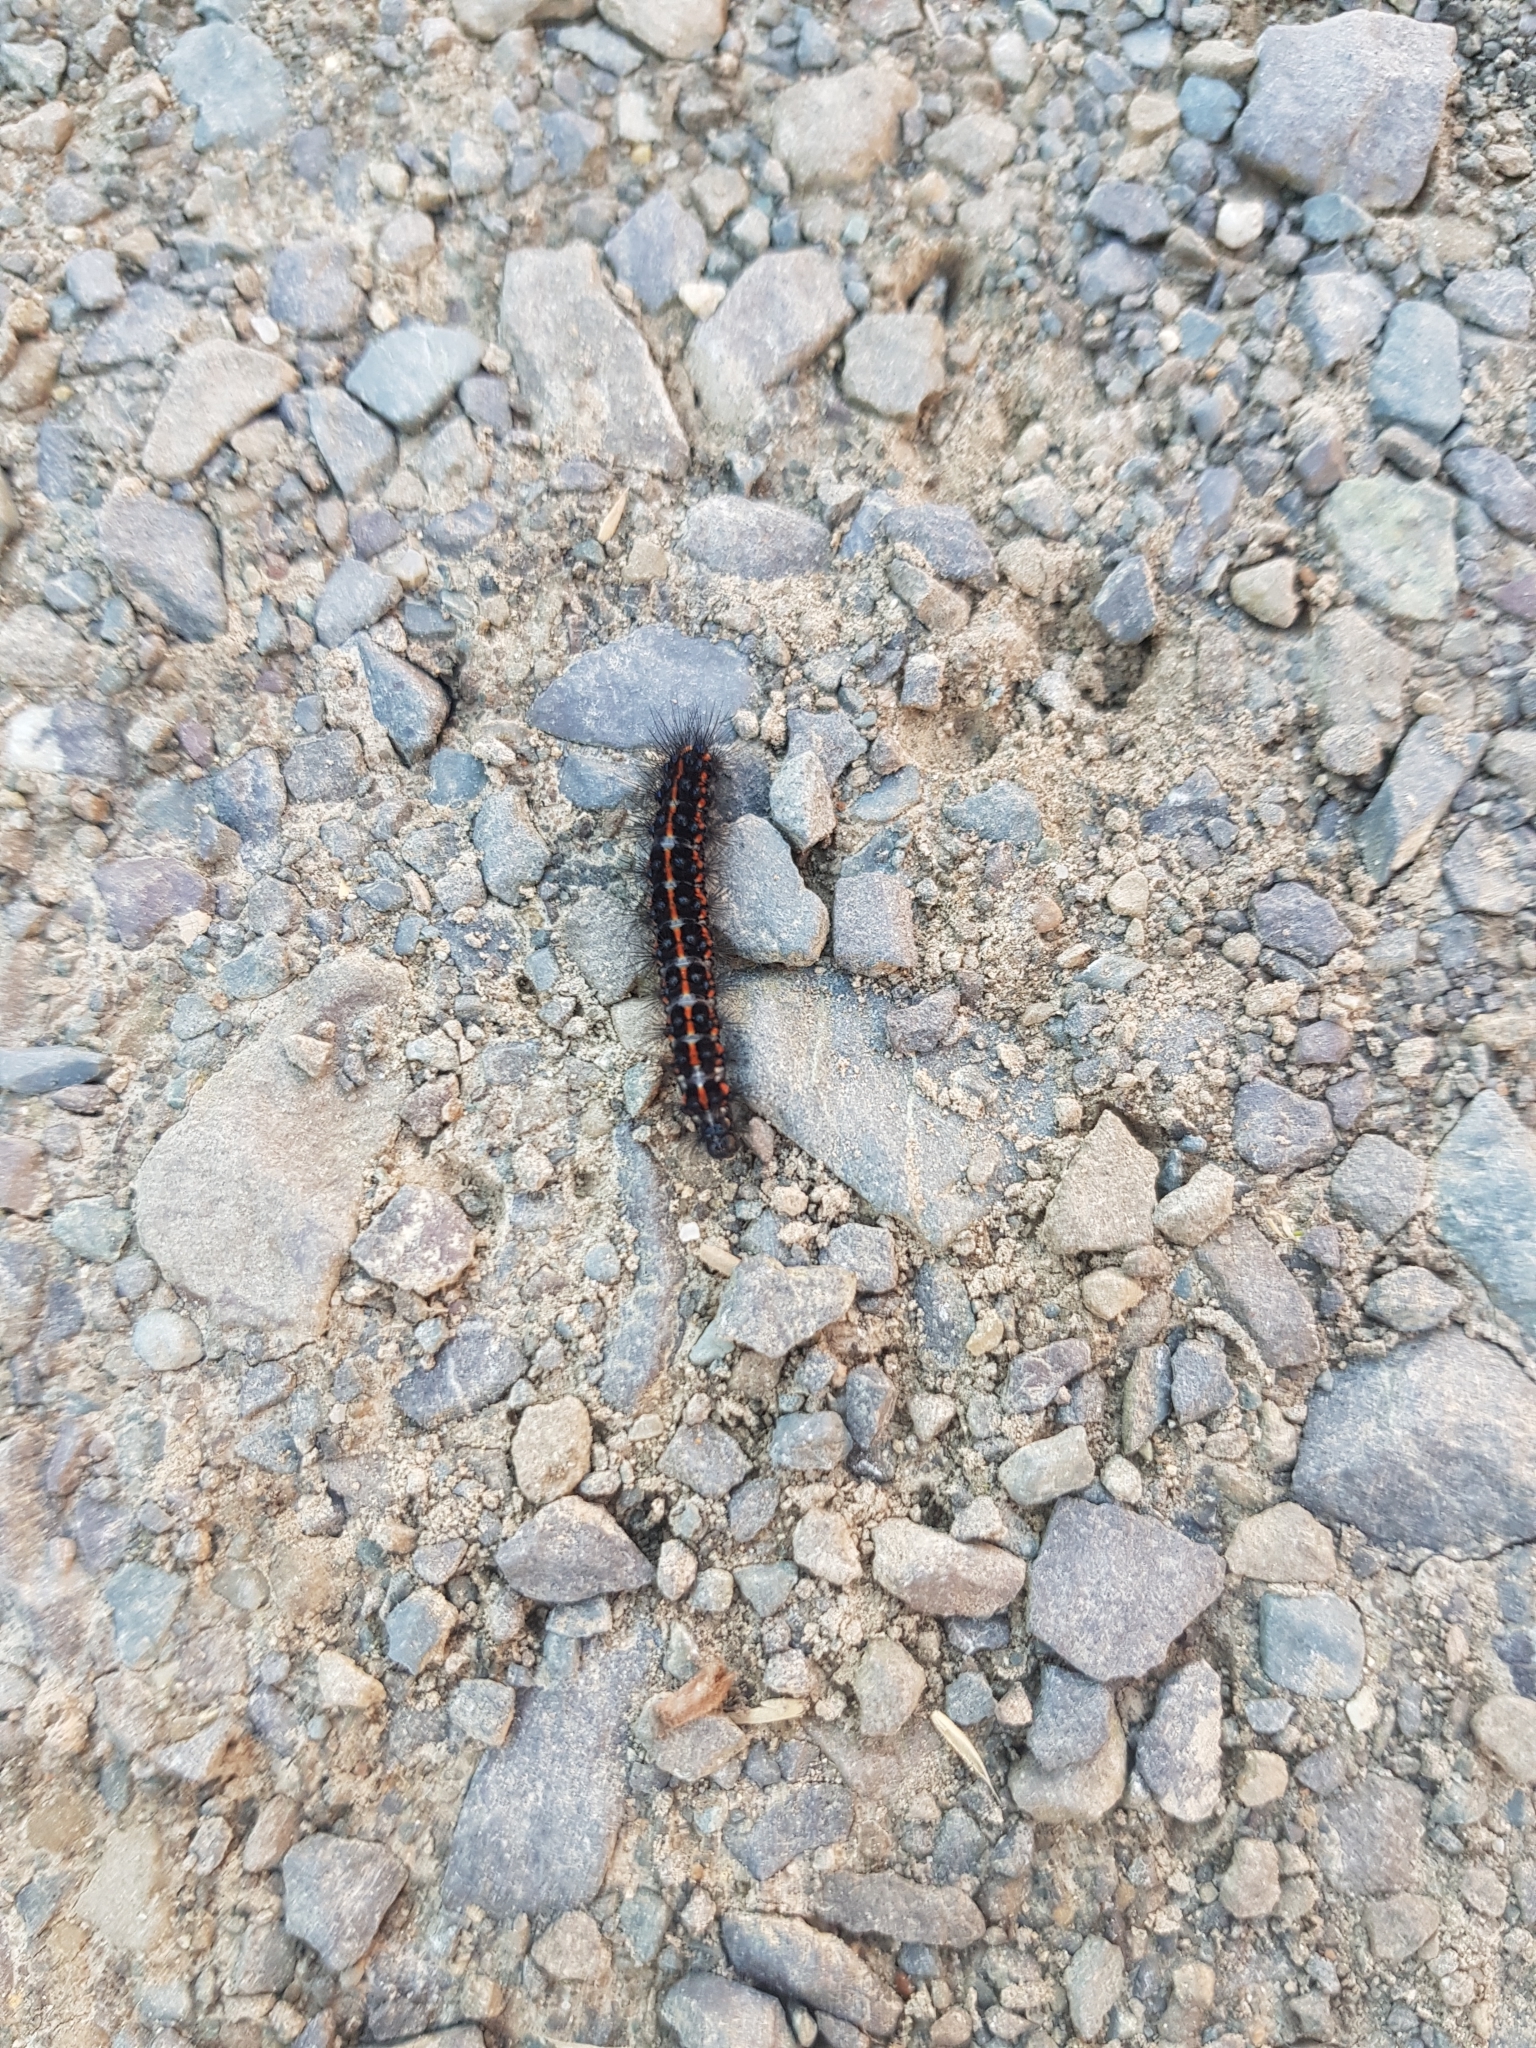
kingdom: Animalia
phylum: Arthropoda
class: Insecta
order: Lepidoptera
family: Erebidae
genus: Nyctemera
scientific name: Nyctemera annulatum
